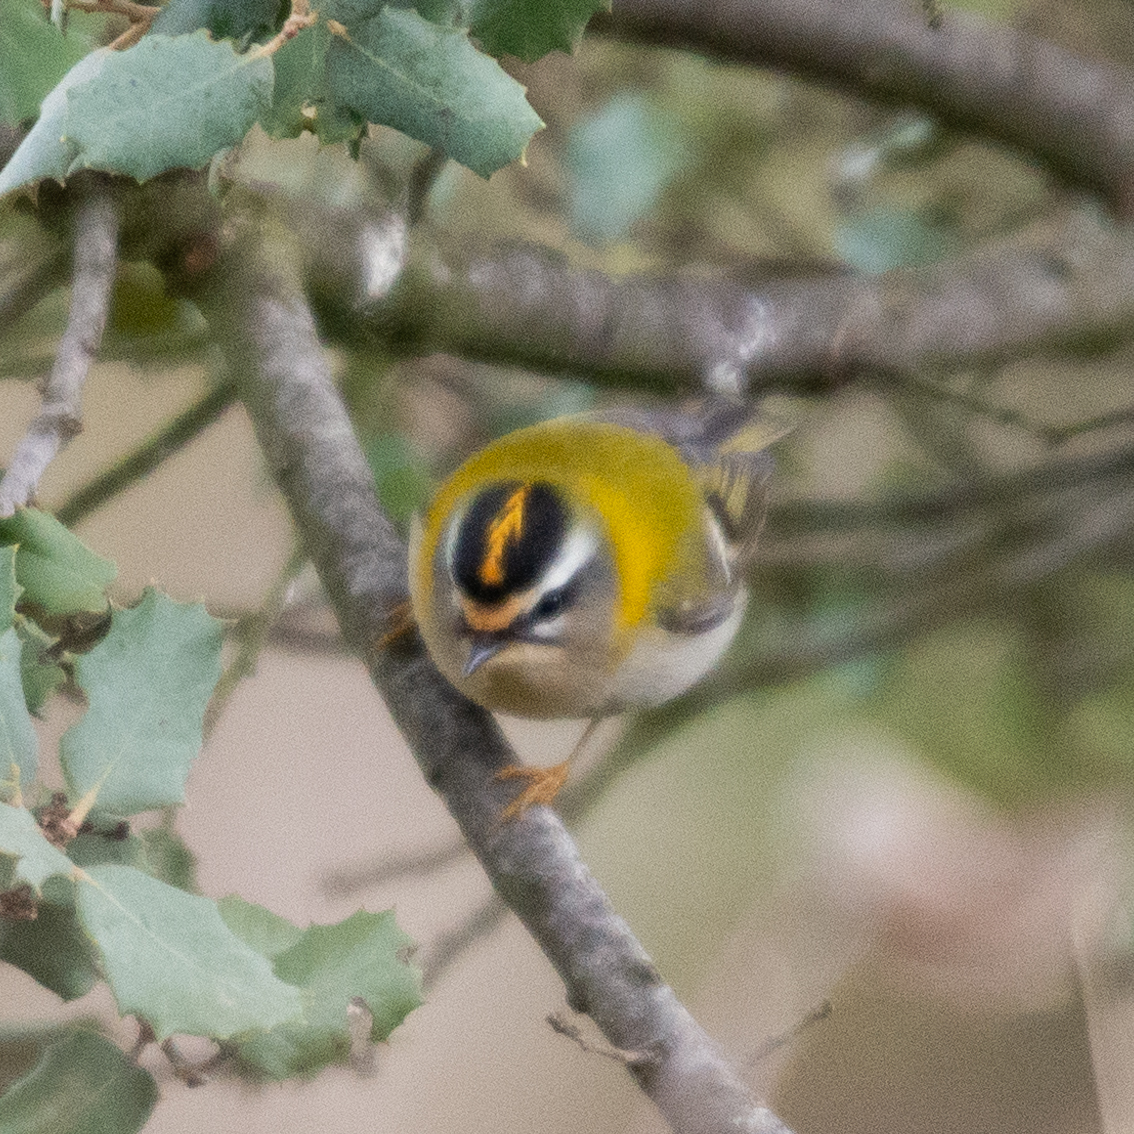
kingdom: Animalia
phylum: Chordata
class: Aves
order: Passeriformes
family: Regulidae
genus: Regulus
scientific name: Regulus ignicapilla
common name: Firecrest
